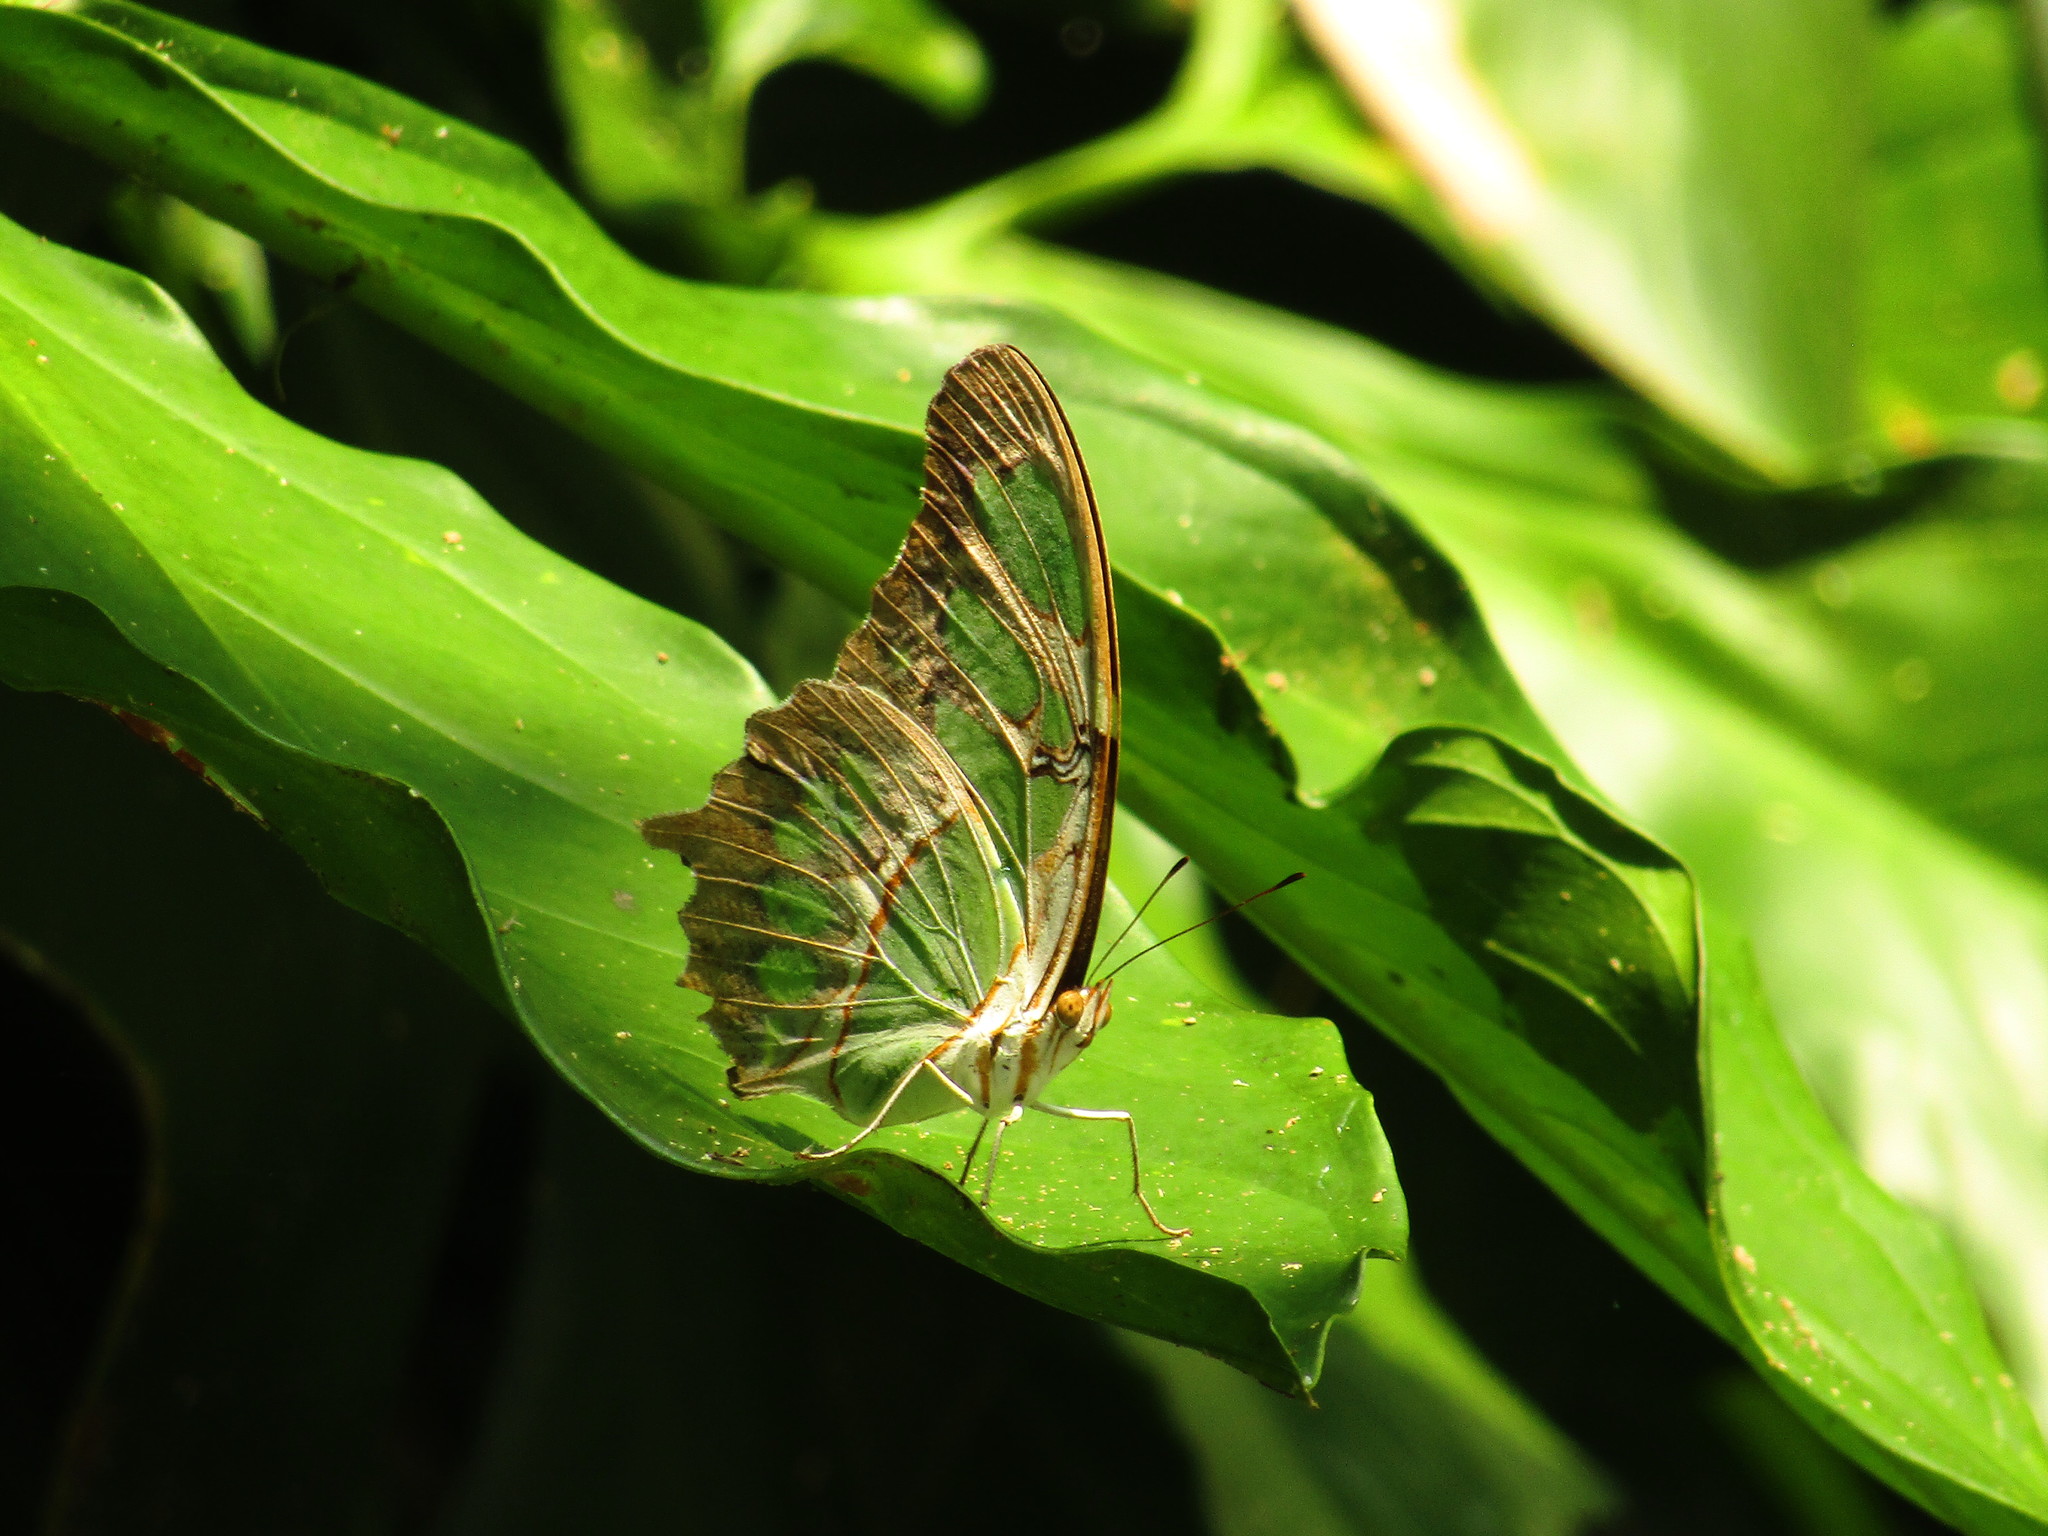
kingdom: Animalia
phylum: Arthropoda
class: Insecta
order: Lepidoptera
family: Nymphalidae
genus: Siproeta
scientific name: Siproeta stelenes
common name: Malachite
